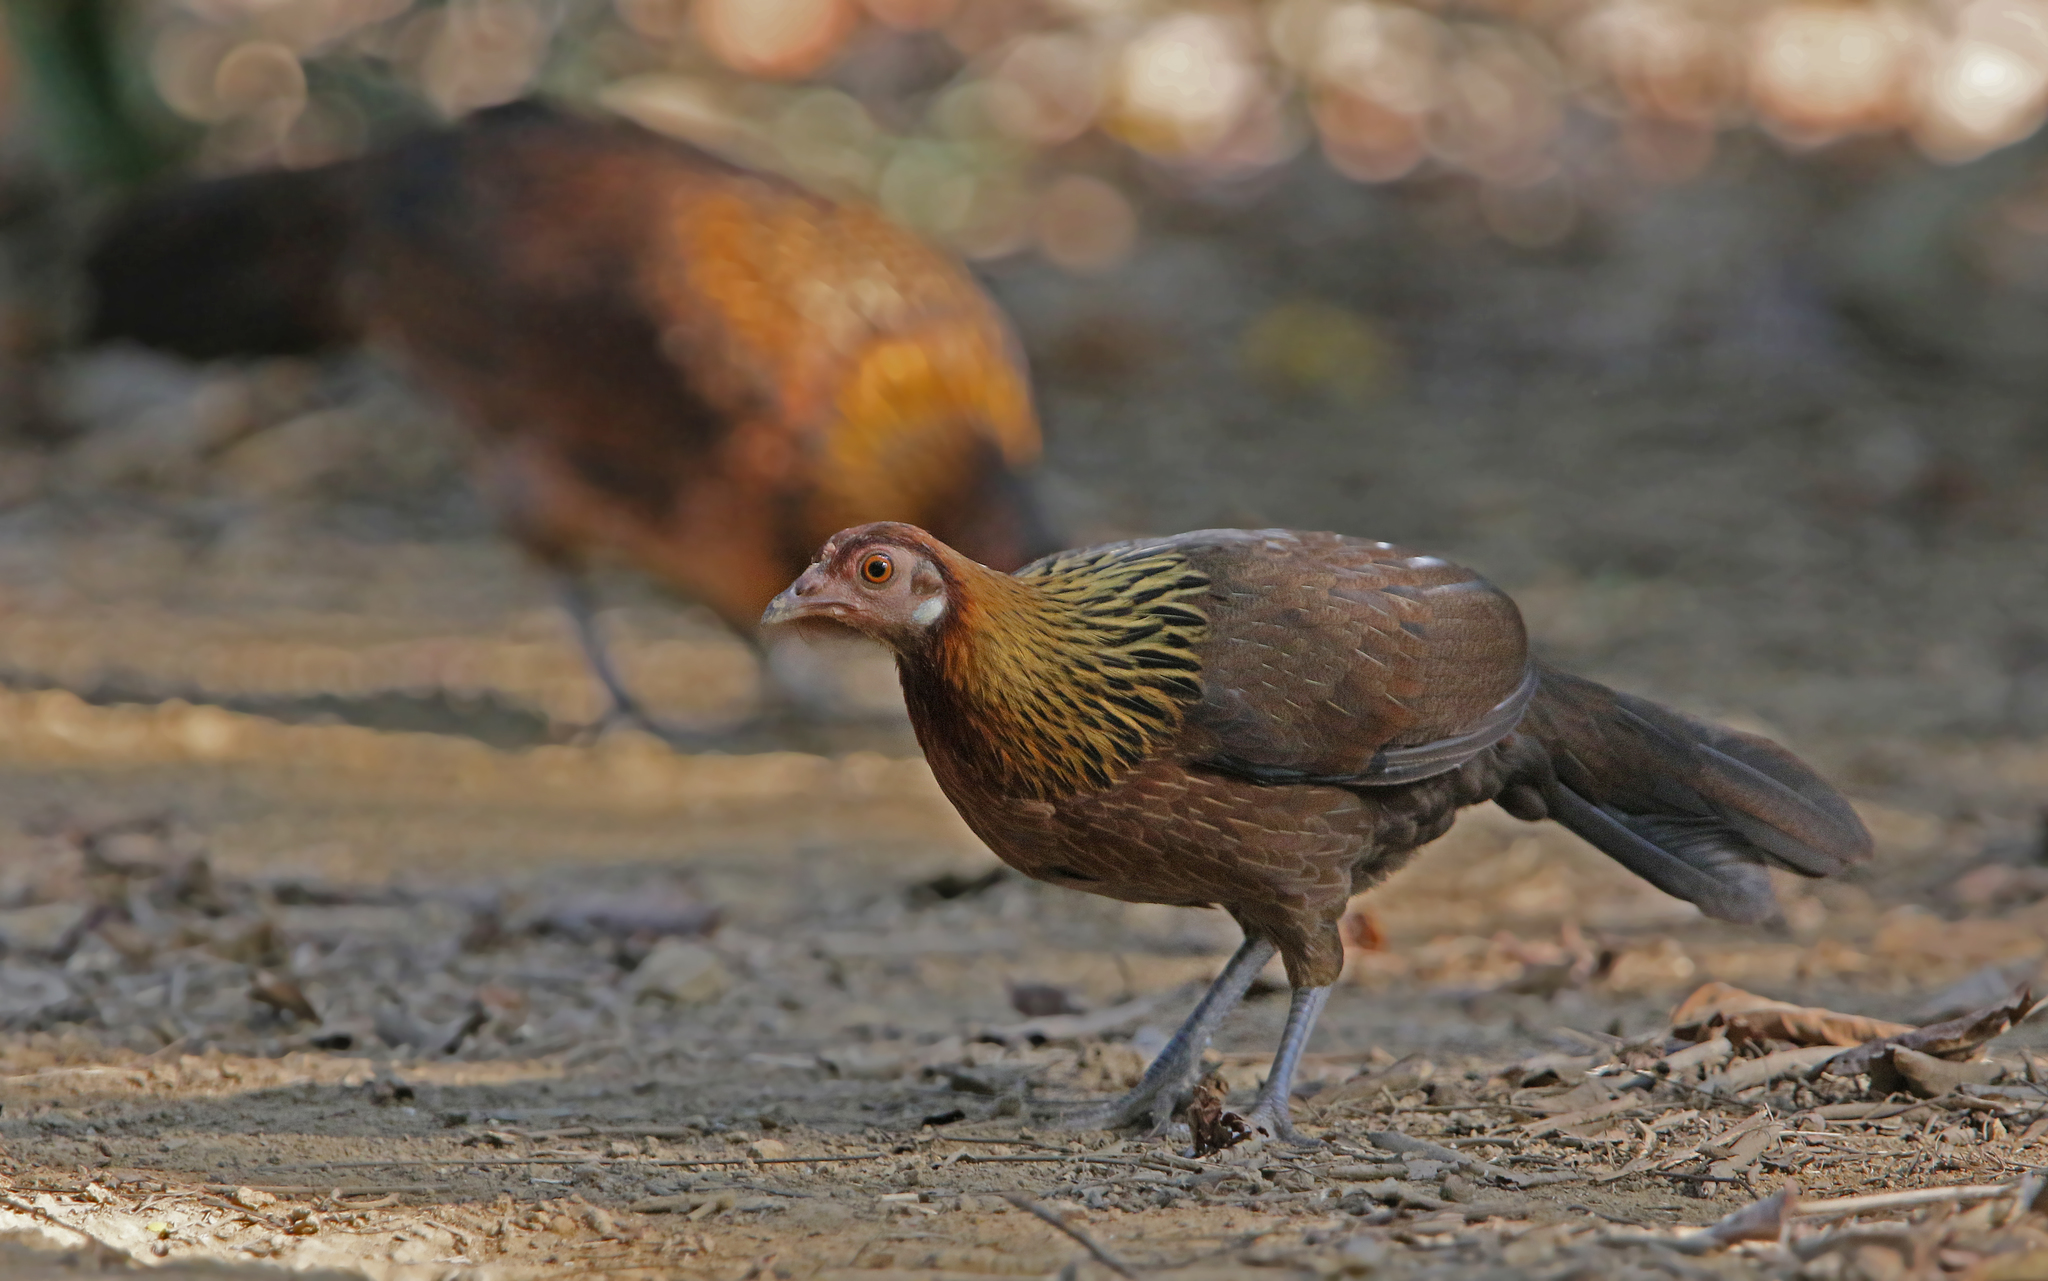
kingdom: Animalia
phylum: Chordata
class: Aves
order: Galliformes
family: Phasianidae
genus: Gallus
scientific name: Gallus gallus
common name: Red junglefowl
